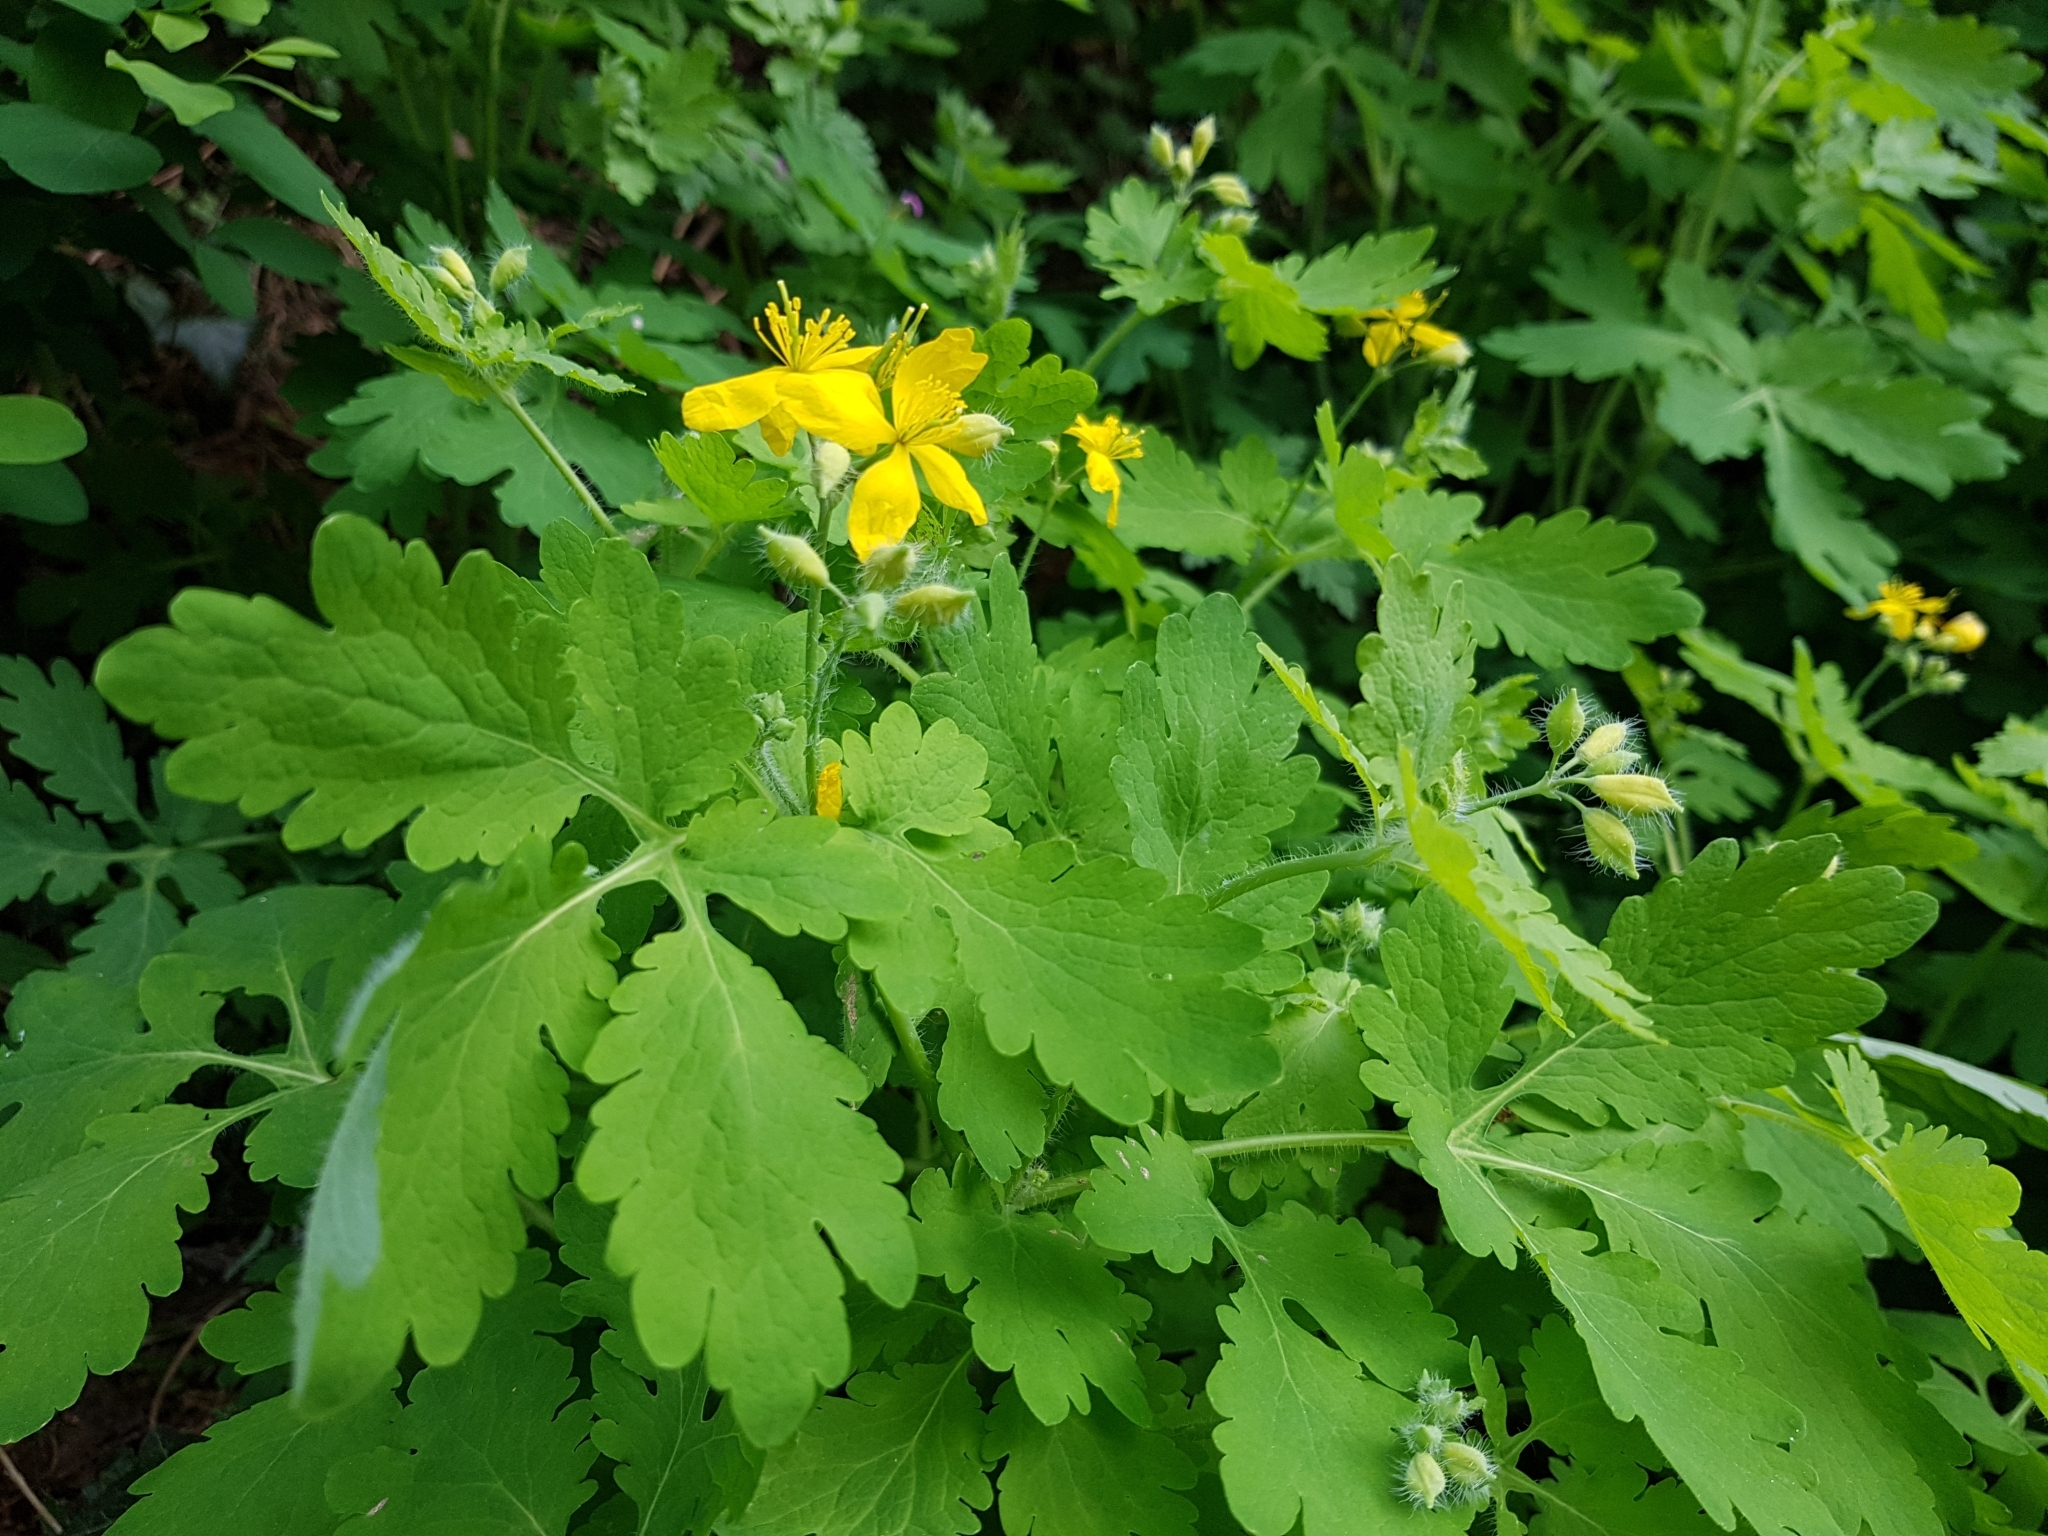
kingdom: Plantae
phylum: Tracheophyta
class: Magnoliopsida
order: Ranunculales
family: Papaveraceae
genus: Chelidonium
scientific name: Chelidonium majus
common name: Greater celandine
